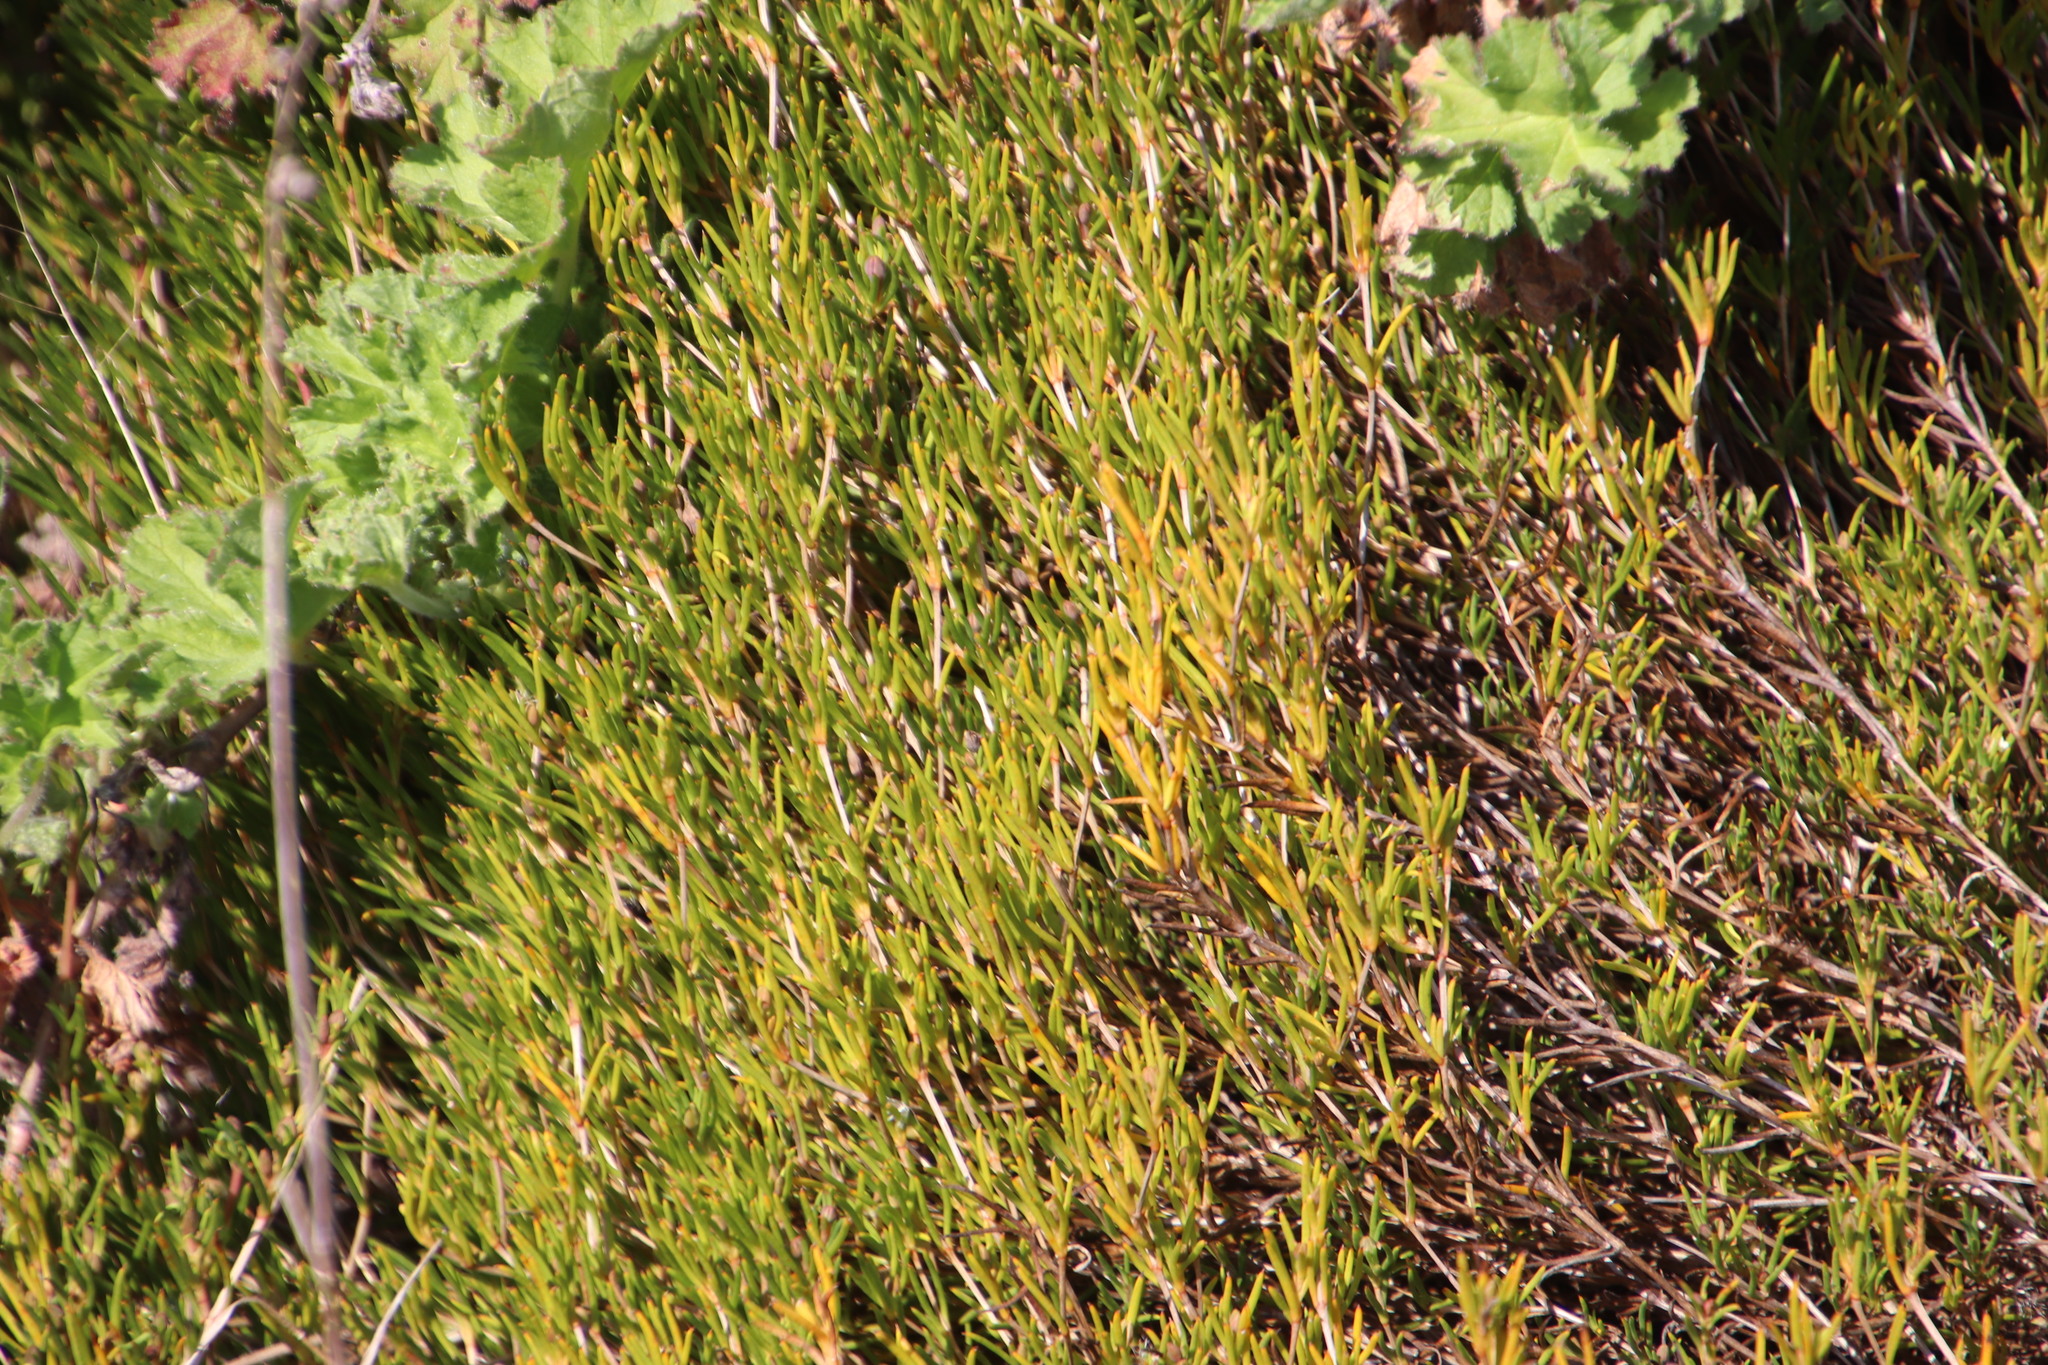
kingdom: Plantae
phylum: Tracheophyta
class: Magnoliopsida
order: Caryophyllales
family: Aizoaceae
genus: Acrosanthes
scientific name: Acrosanthes teretifolia
